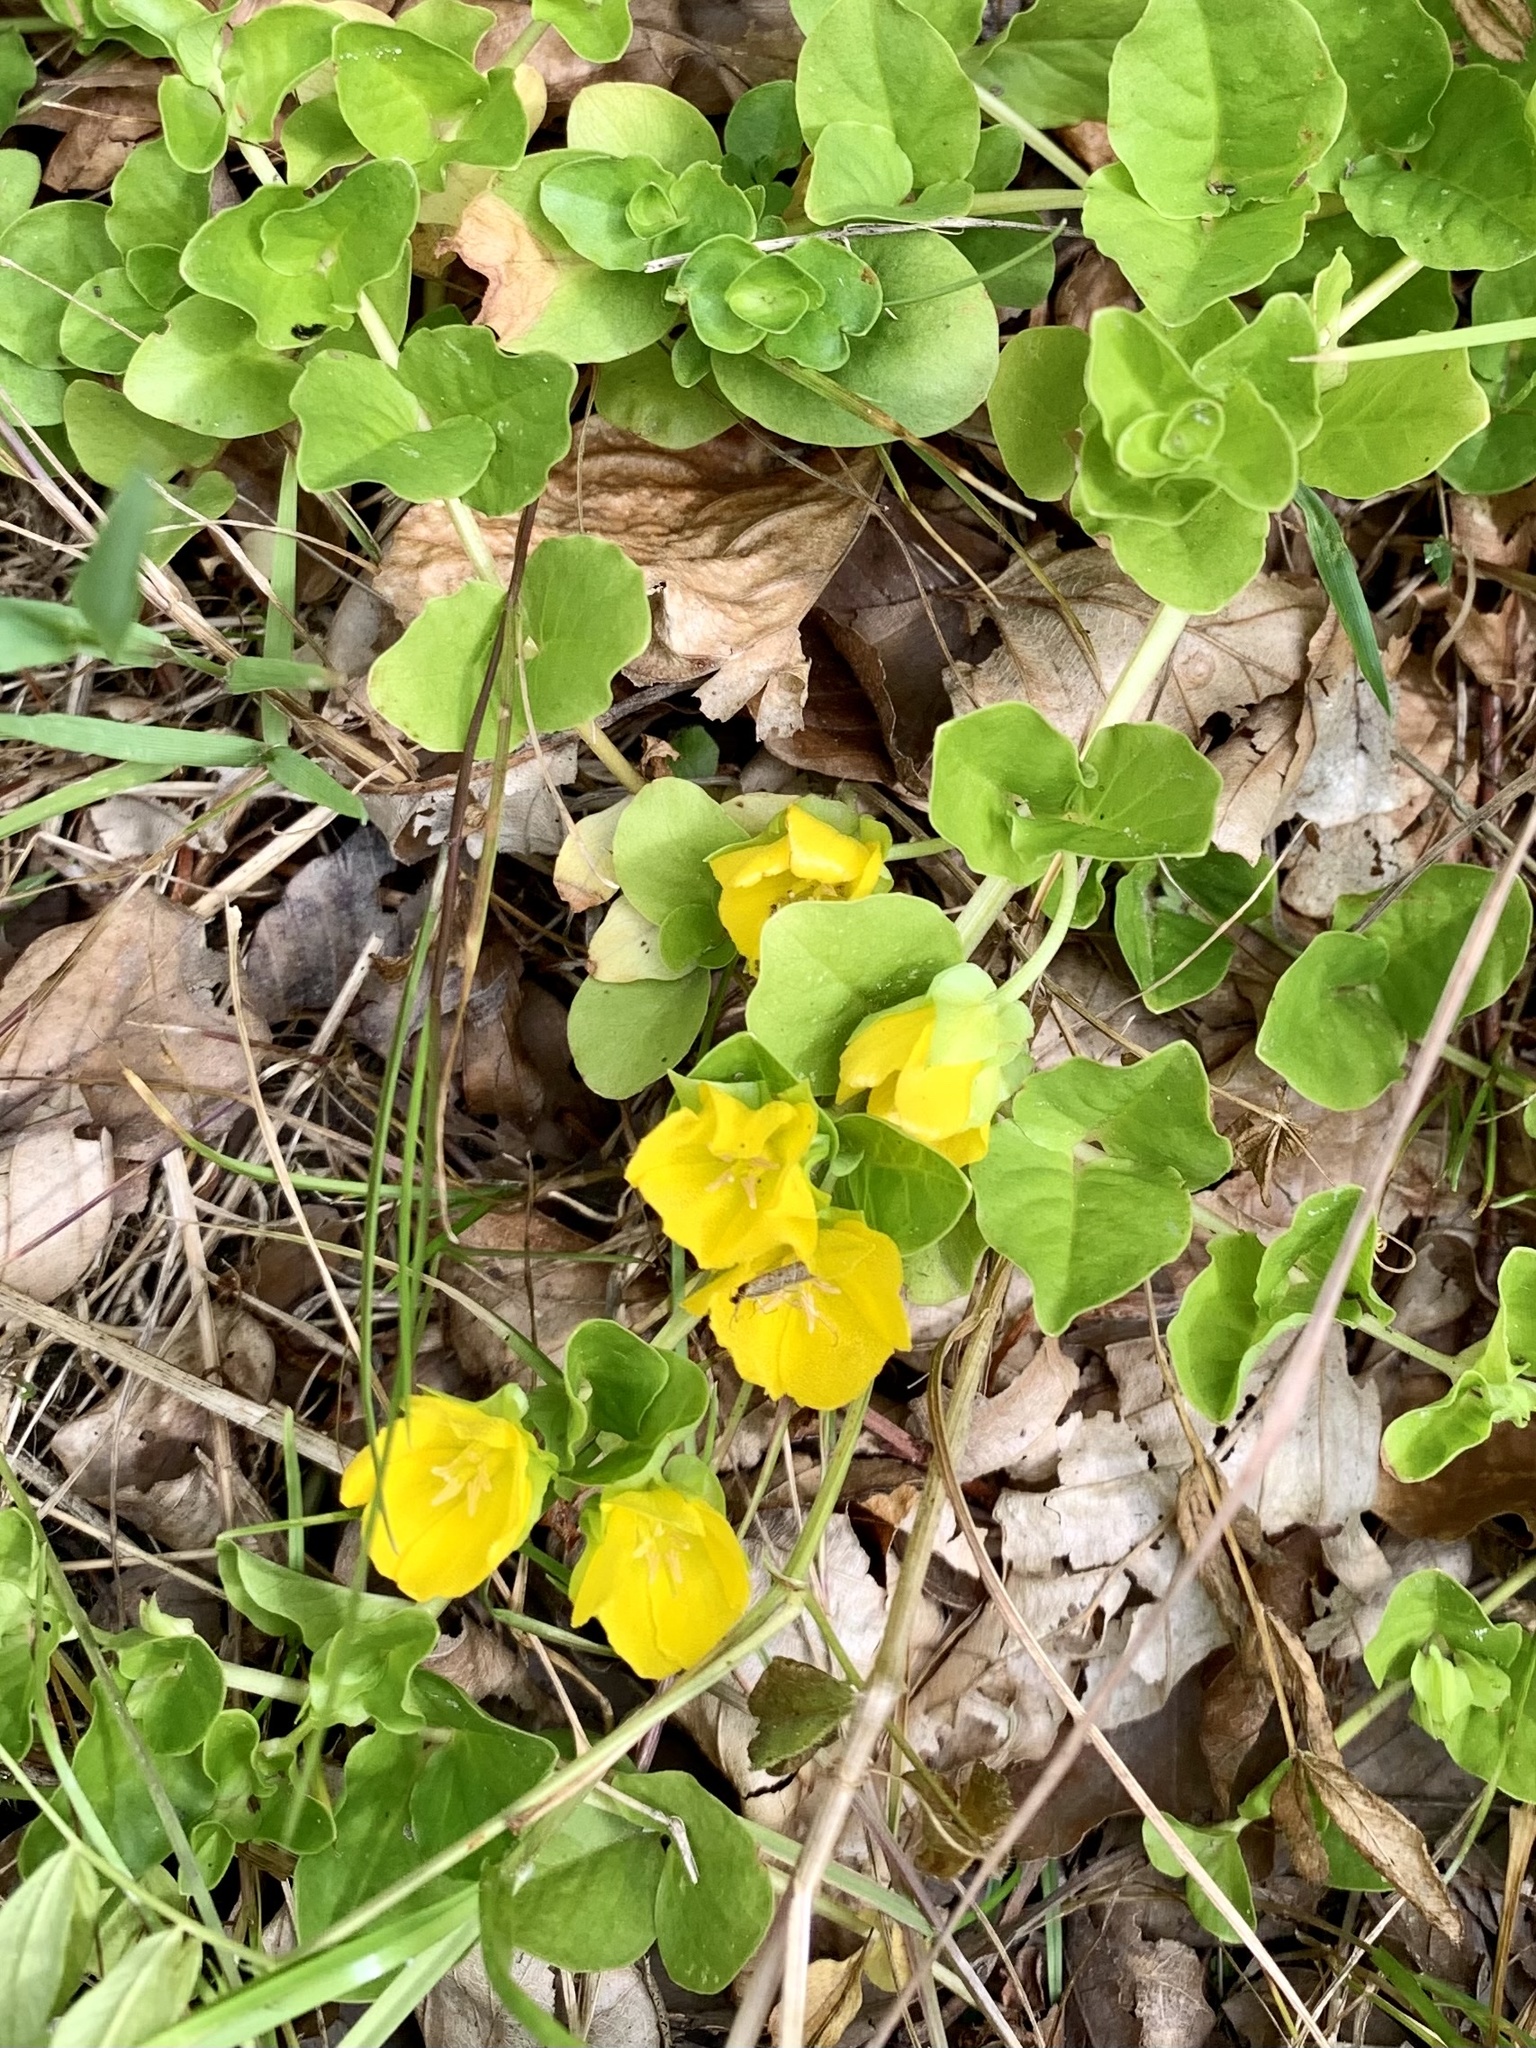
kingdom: Plantae
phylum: Tracheophyta
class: Magnoliopsida
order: Ericales
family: Primulaceae
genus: Lysimachia
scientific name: Lysimachia nummularia
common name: Moneywort
